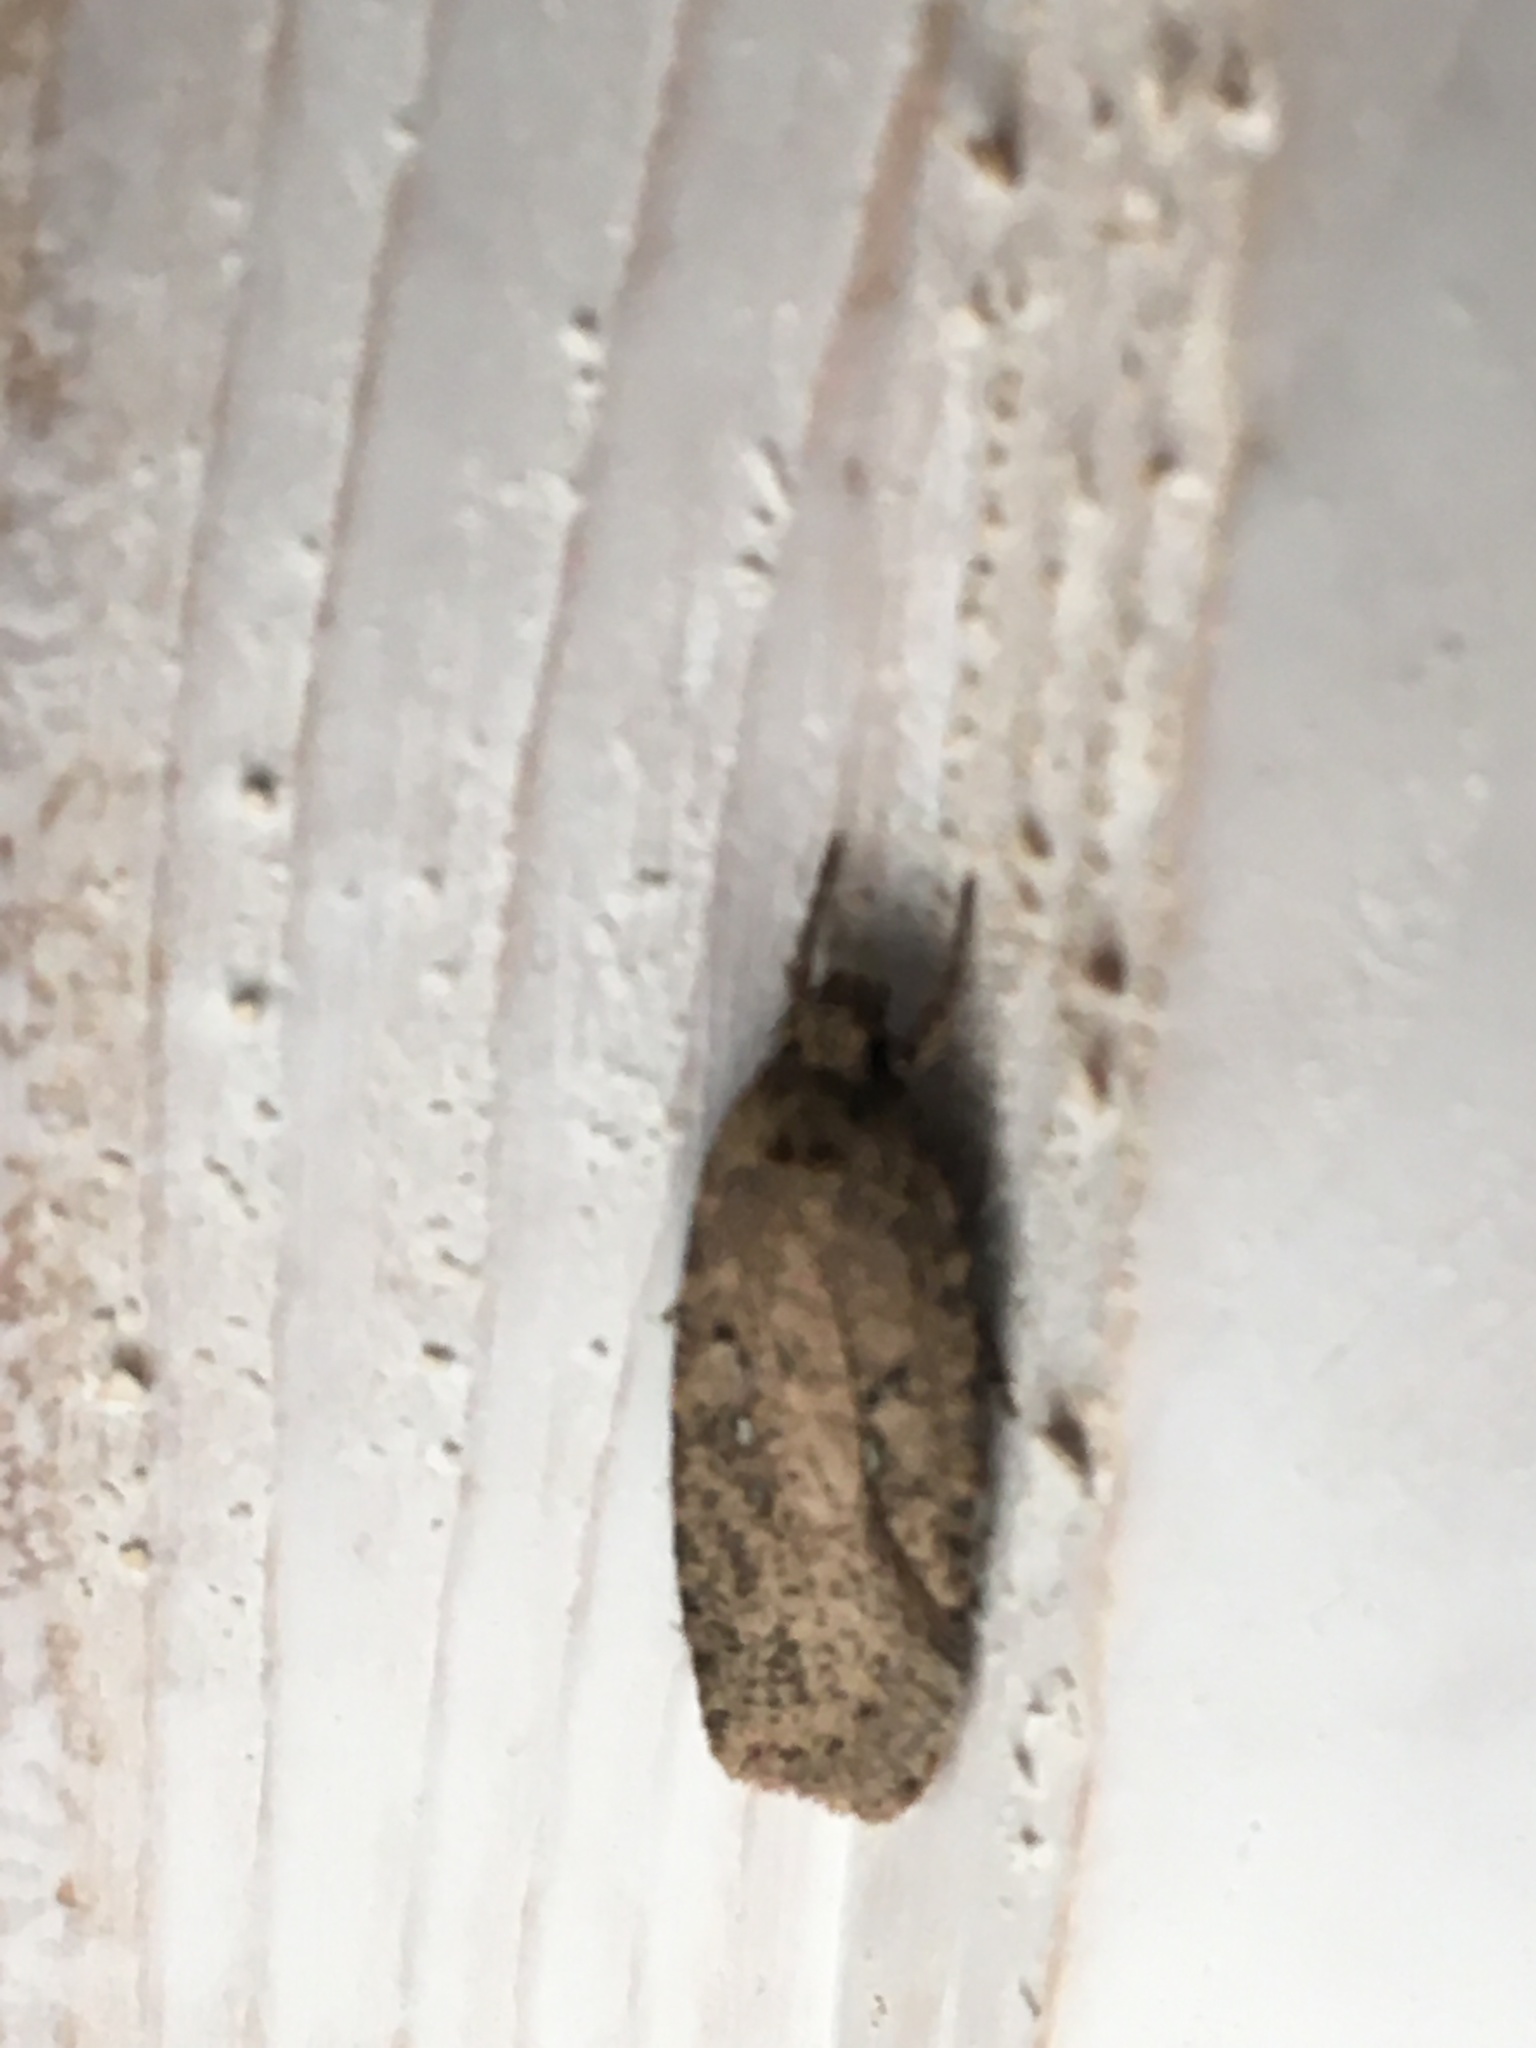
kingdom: Animalia
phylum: Arthropoda
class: Insecta
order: Lepidoptera
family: Depressariidae
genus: Agonopterix
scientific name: Agonopterix heracliana
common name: Common flat-body
